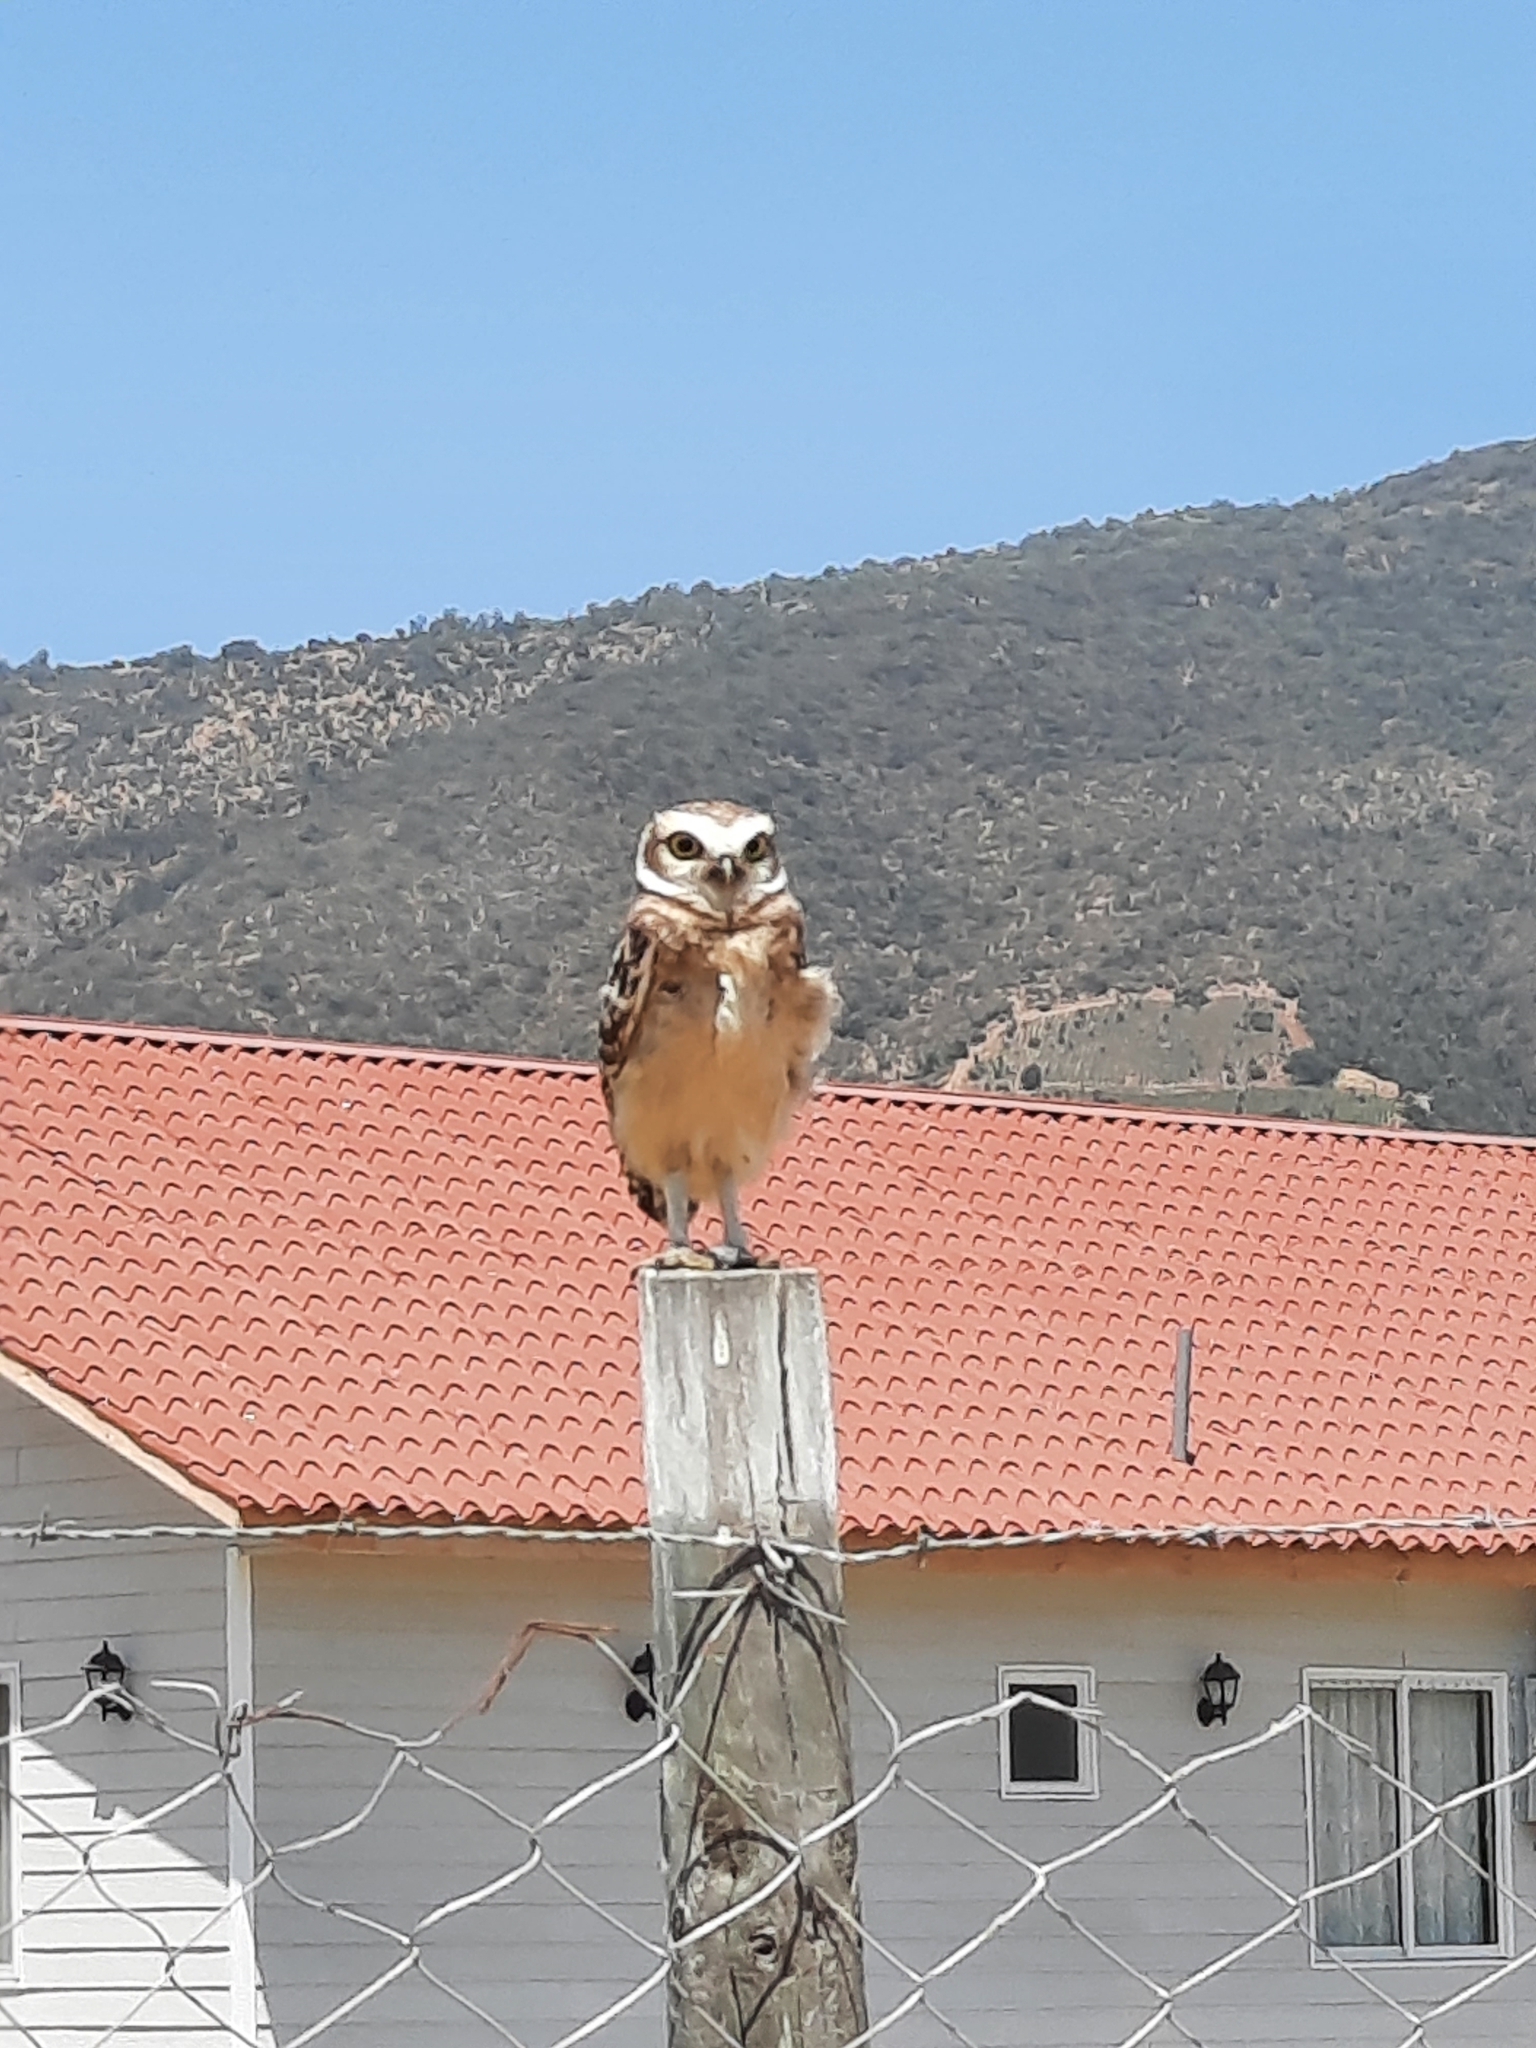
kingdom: Animalia
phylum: Chordata
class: Aves
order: Strigiformes
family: Strigidae
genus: Athene
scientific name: Athene cunicularia
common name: Burrowing owl
